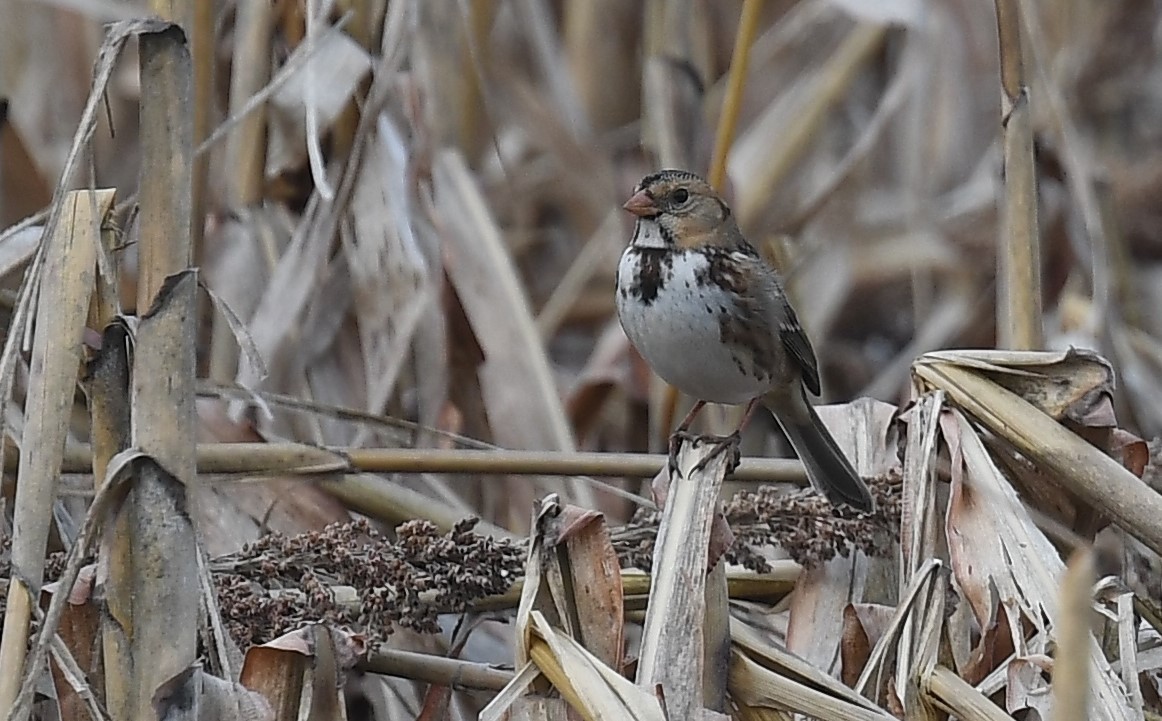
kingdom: Animalia
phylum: Chordata
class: Aves
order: Passeriformes
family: Passerellidae
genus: Zonotrichia
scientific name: Zonotrichia querula
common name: Harris's sparrow
